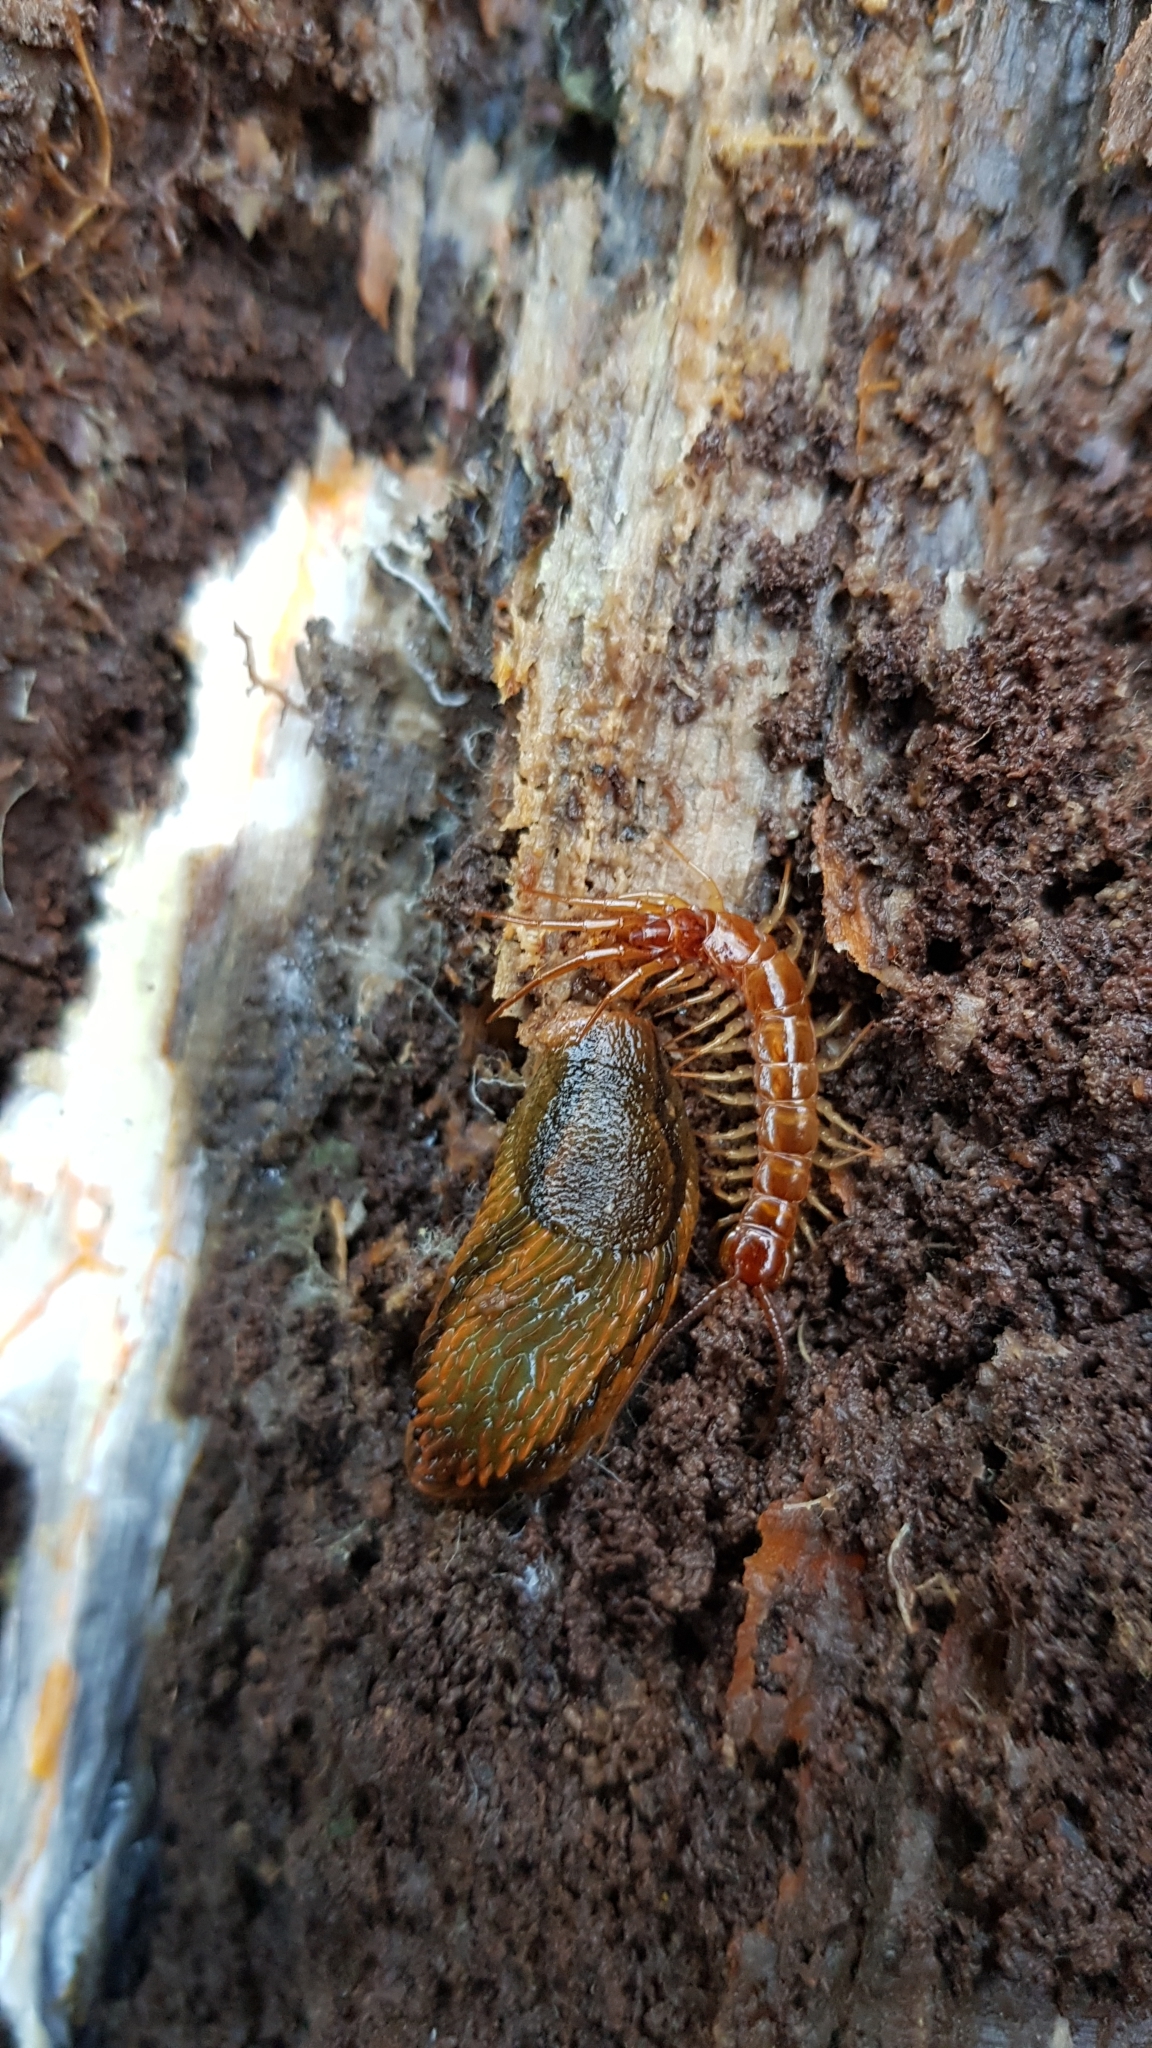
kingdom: Animalia
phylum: Arthropoda
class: Chilopoda
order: Lithobiomorpha
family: Lithobiidae
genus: Lithobius
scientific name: Lithobius forficatus
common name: Centipede
